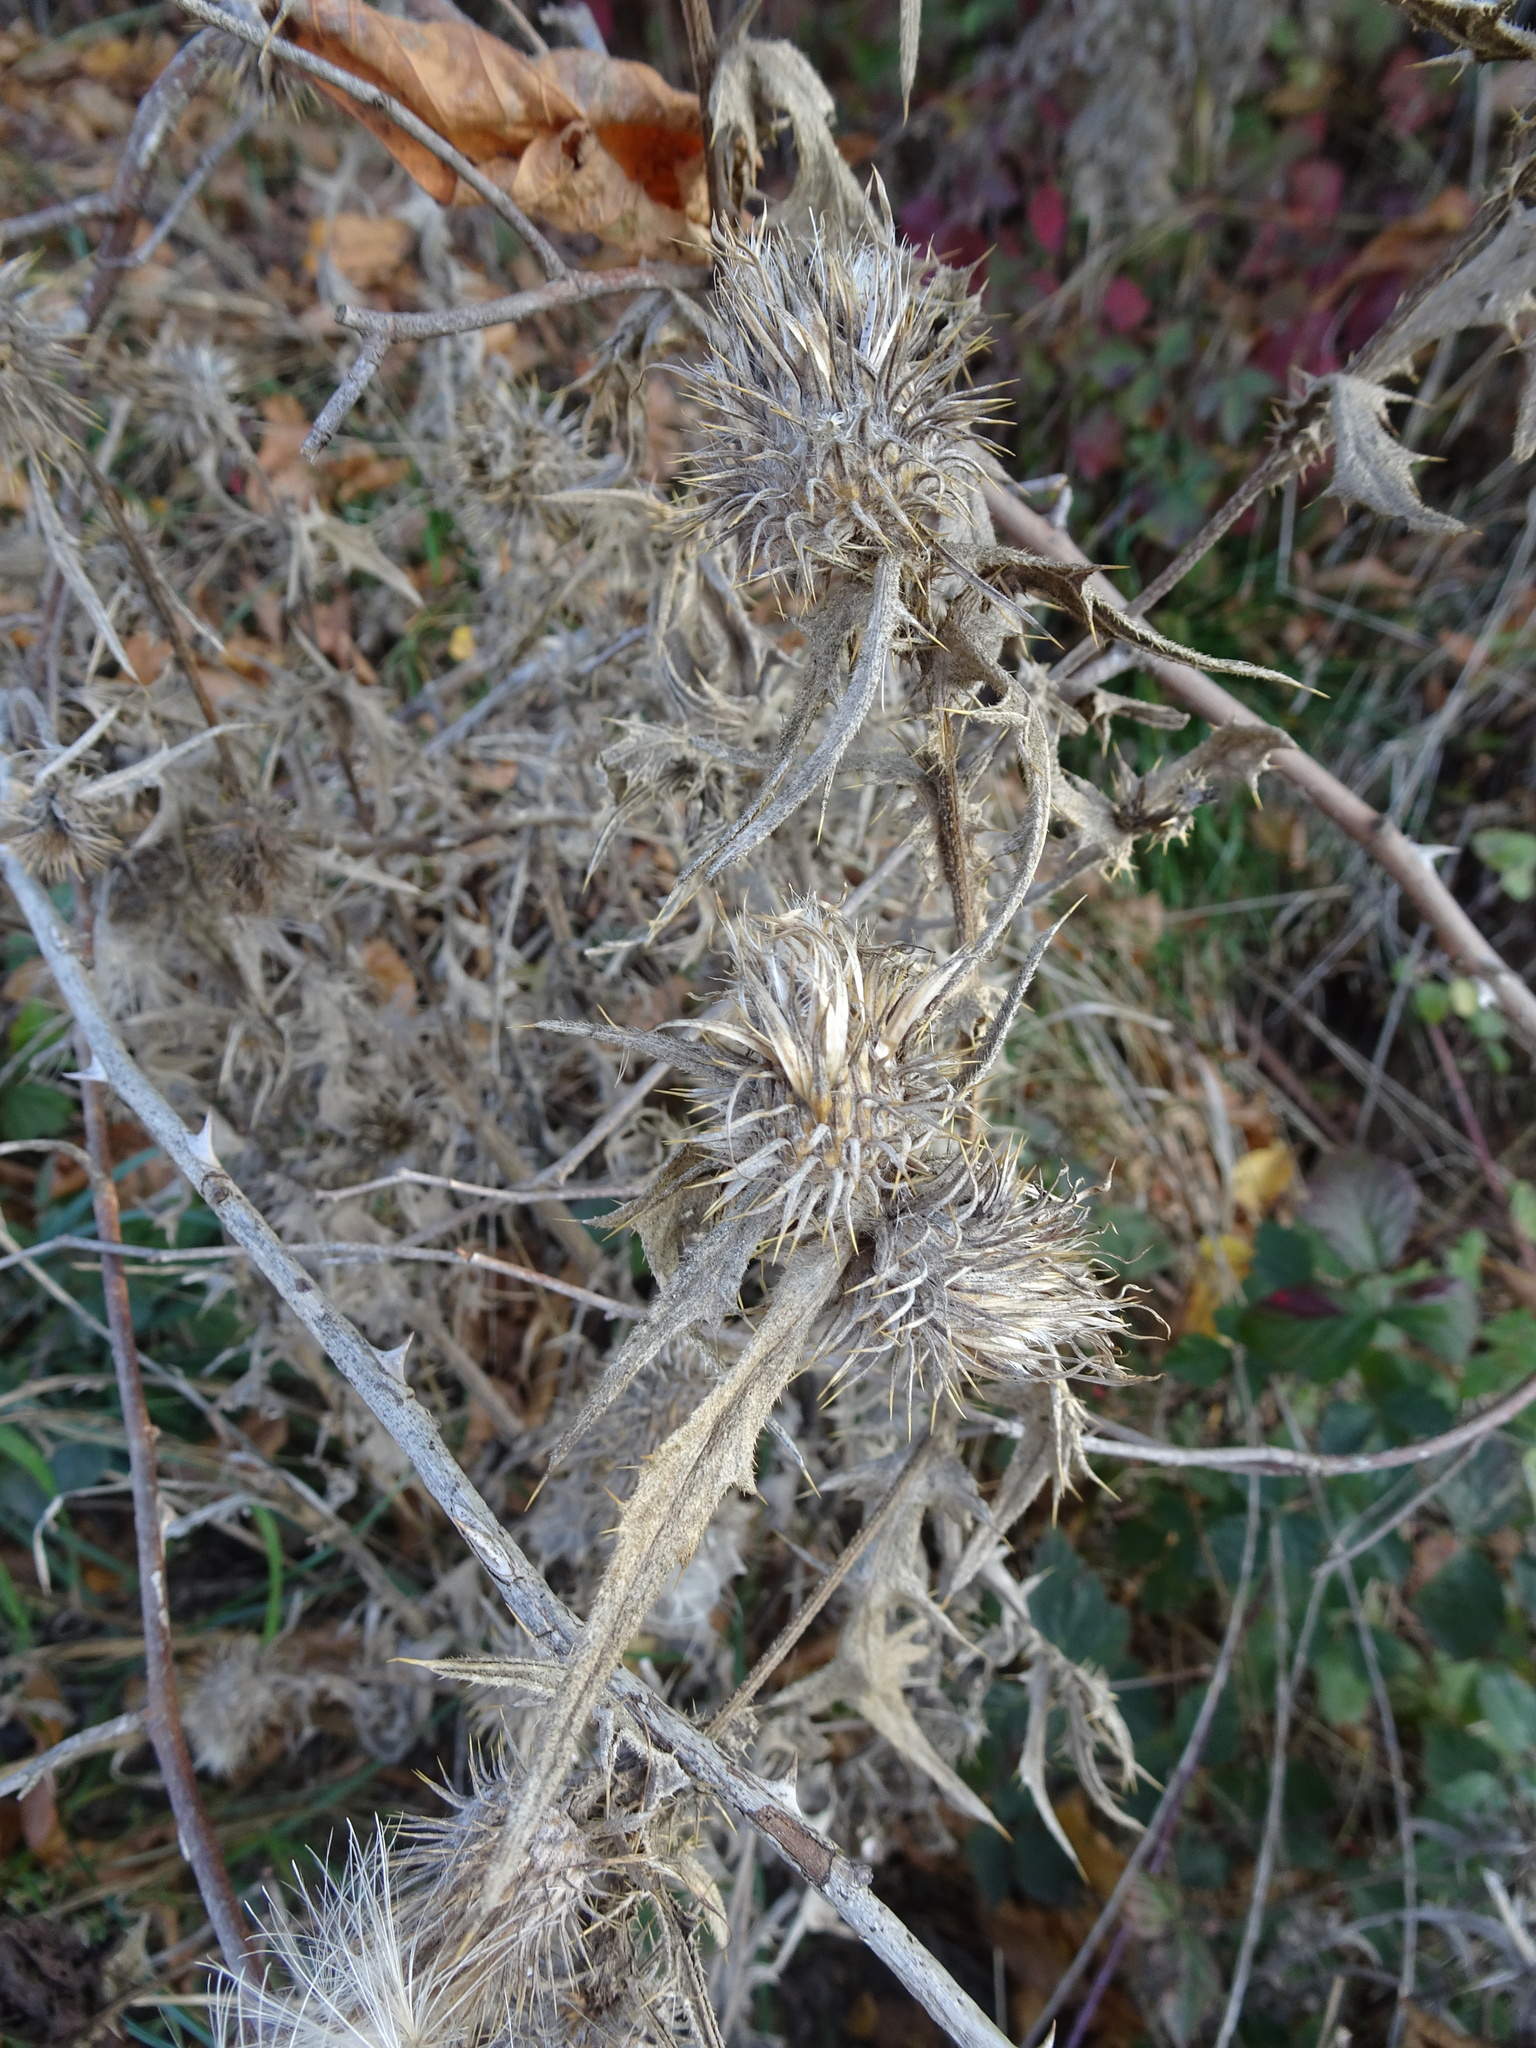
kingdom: Plantae
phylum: Tracheophyta
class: Magnoliopsida
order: Asterales
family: Asteraceae
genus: Cirsium
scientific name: Cirsium vulgare
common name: Bull thistle
